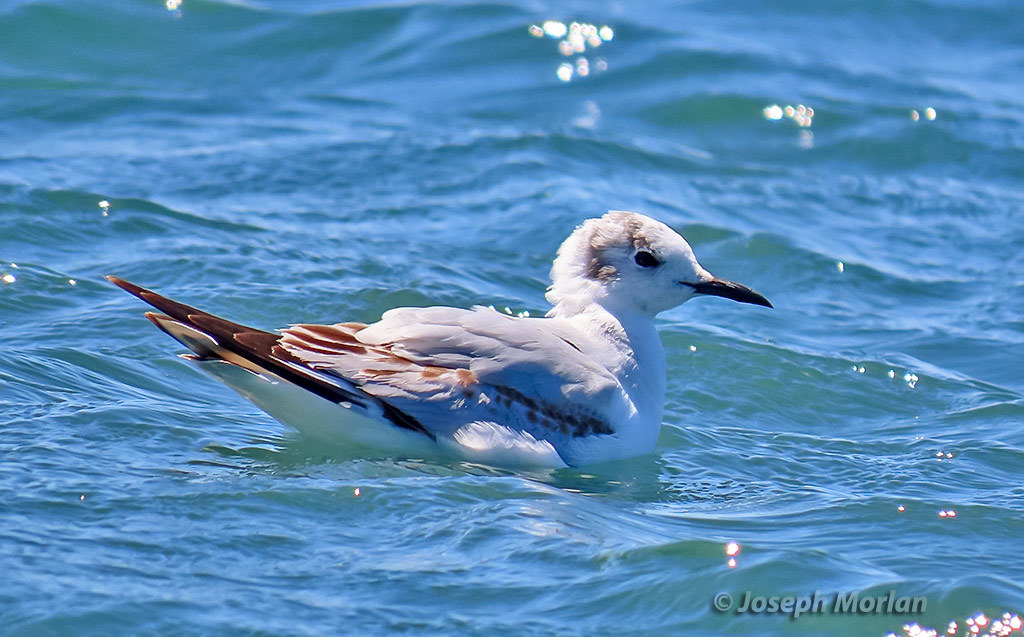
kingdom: Animalia
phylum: Chordata
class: Aves
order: Charadriiformes
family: Laridae
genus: Chroicocephalus
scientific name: Chroicocephalus philadelphia
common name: Bonaparte's gull
